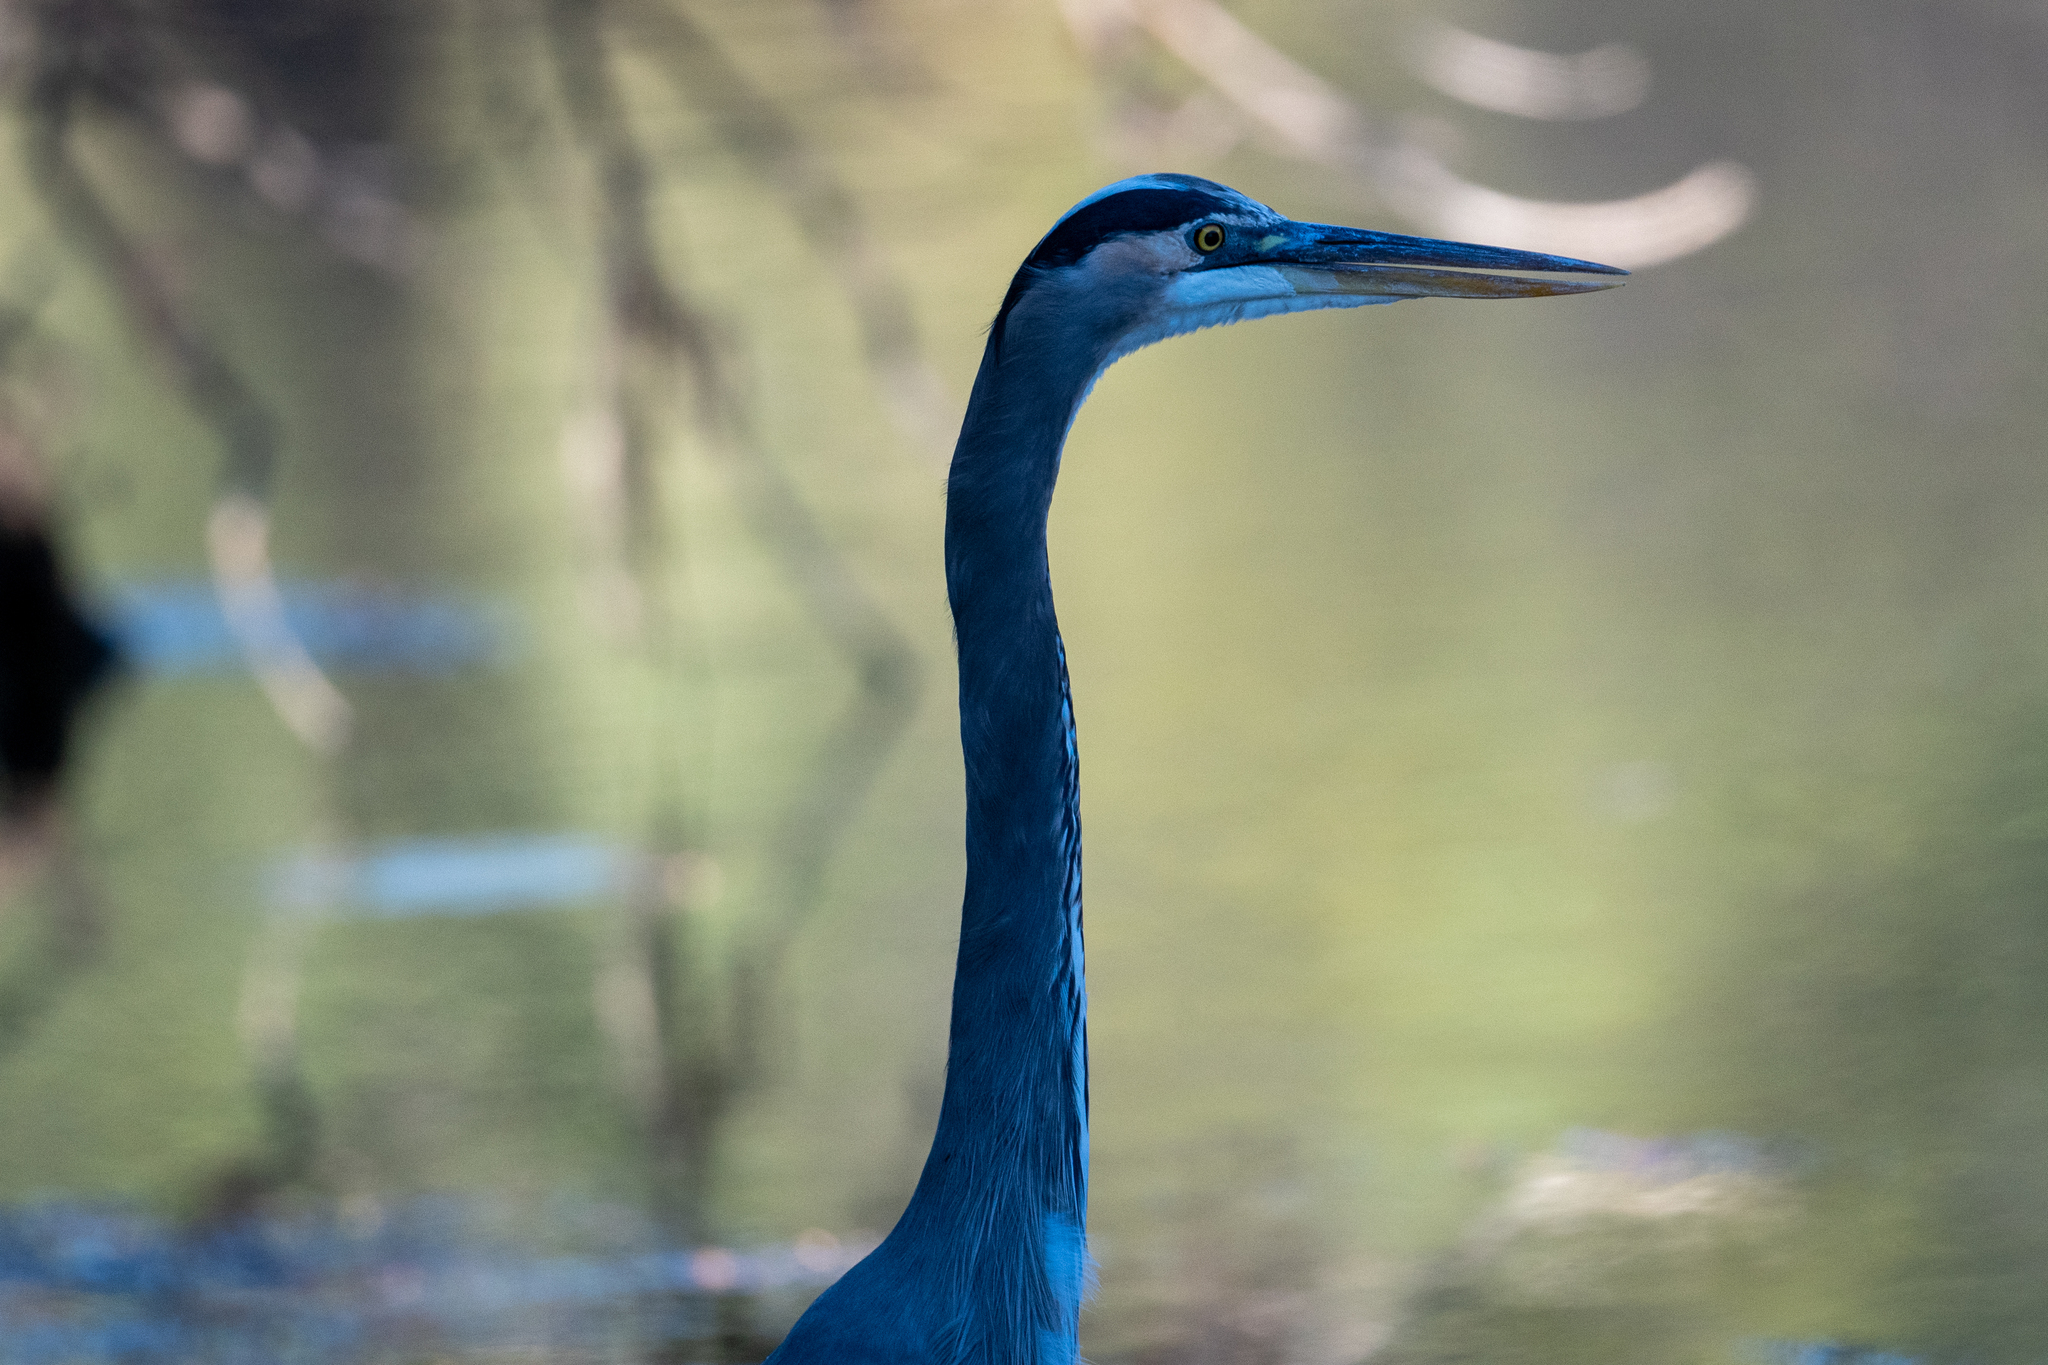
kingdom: Animalia
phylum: Chordata
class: Aves
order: Pelecaniformes
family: Ardeidae
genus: Ardea
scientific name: Ardea herodias
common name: Great blue heron
